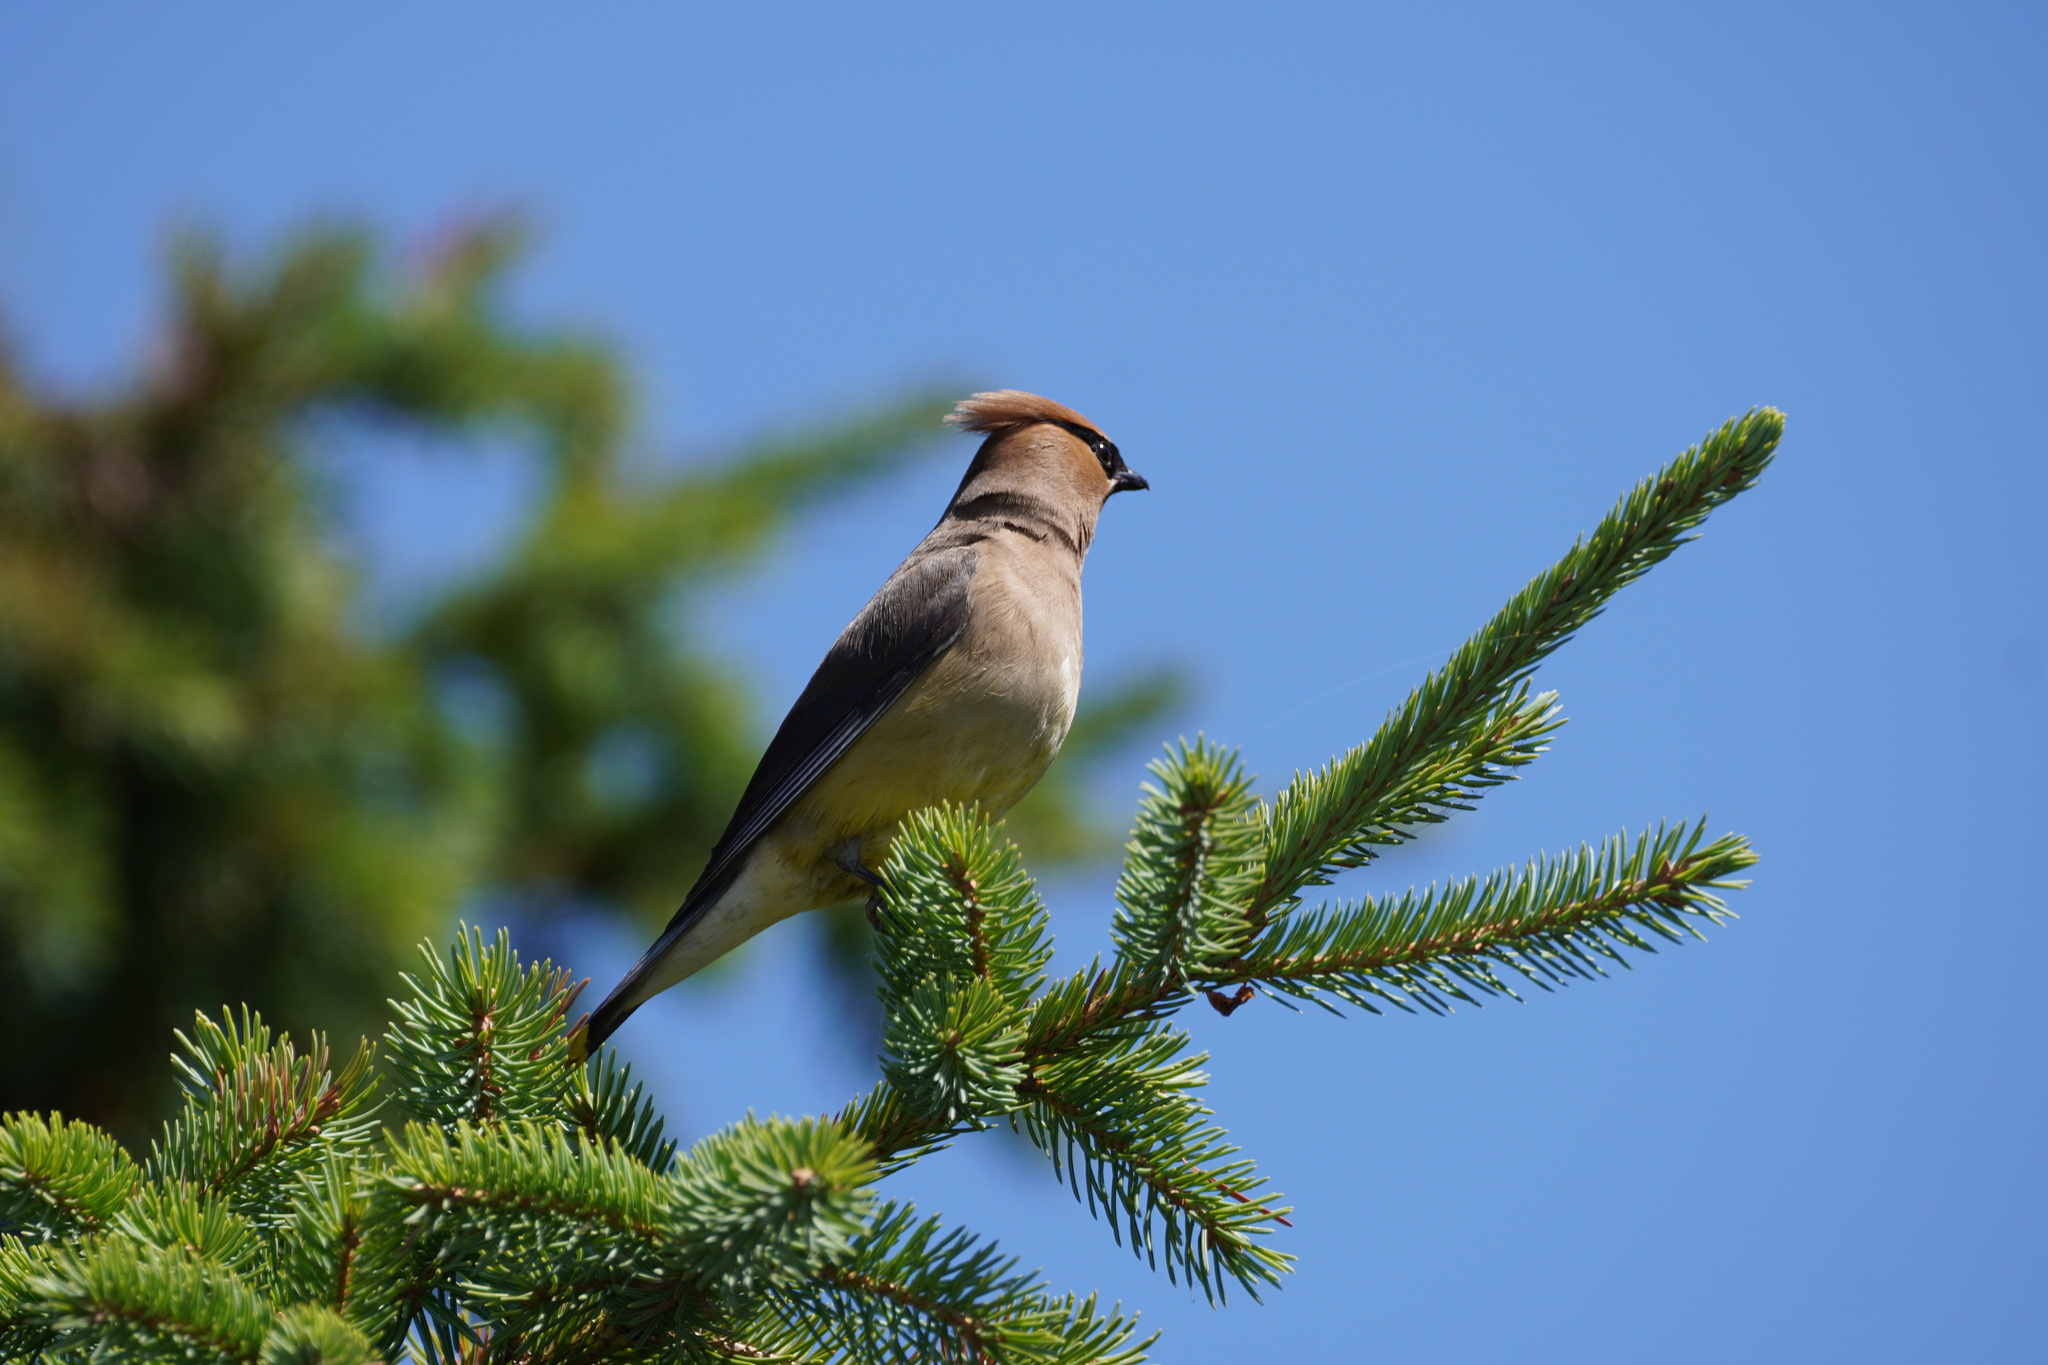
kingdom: Animalia
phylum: Chordata
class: Aves
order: Passeriformes
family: Bombycillidae
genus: Bombycilla
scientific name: Bombycilla cedrorum
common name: Cedar waxwing
